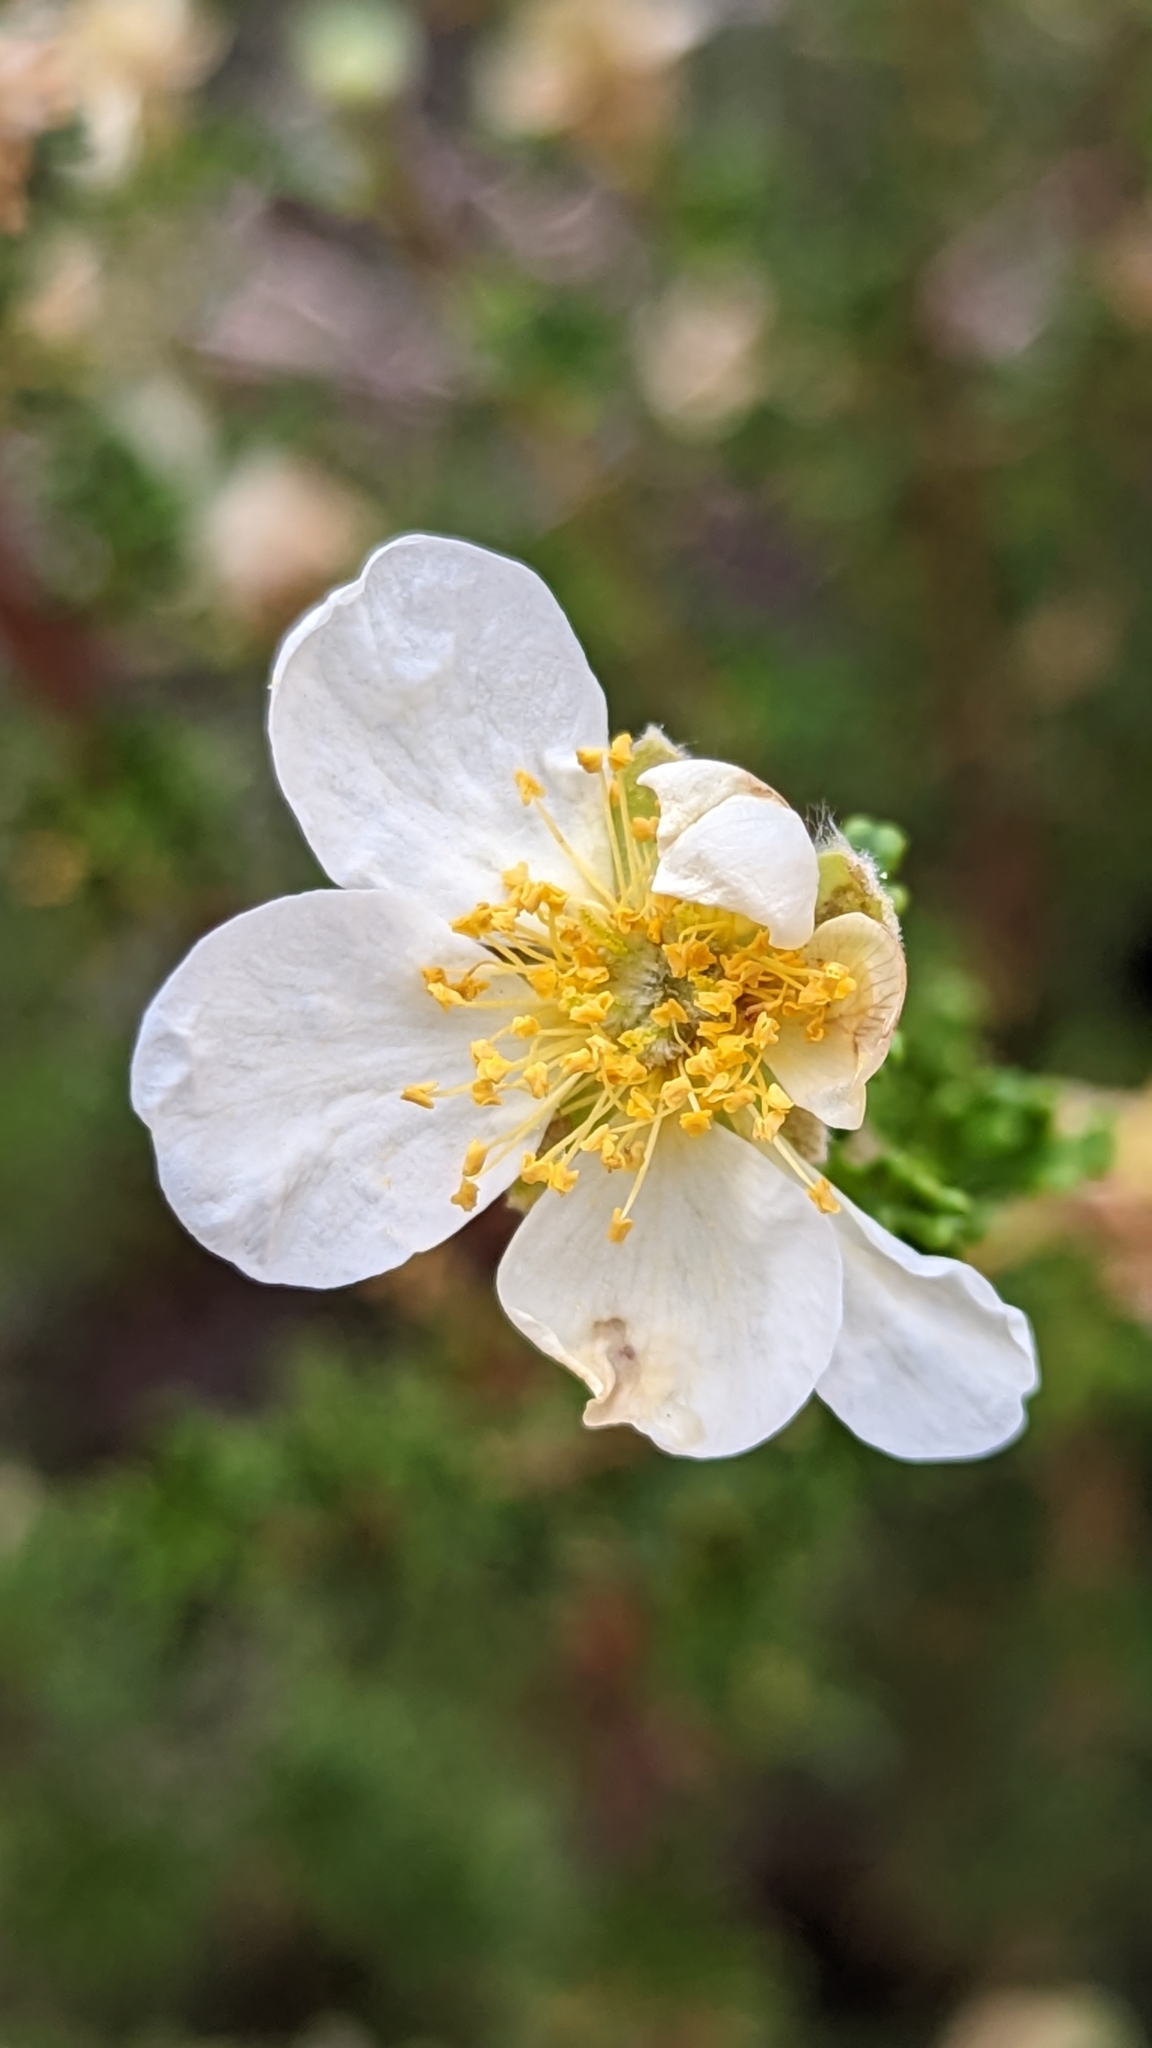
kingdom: Plantae
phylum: Tracheophyta
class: Magnoliopsida
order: Rosales
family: Rosaceae
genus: Purshia
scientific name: Purshia stansburiana
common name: Stansbury's cliffrose
